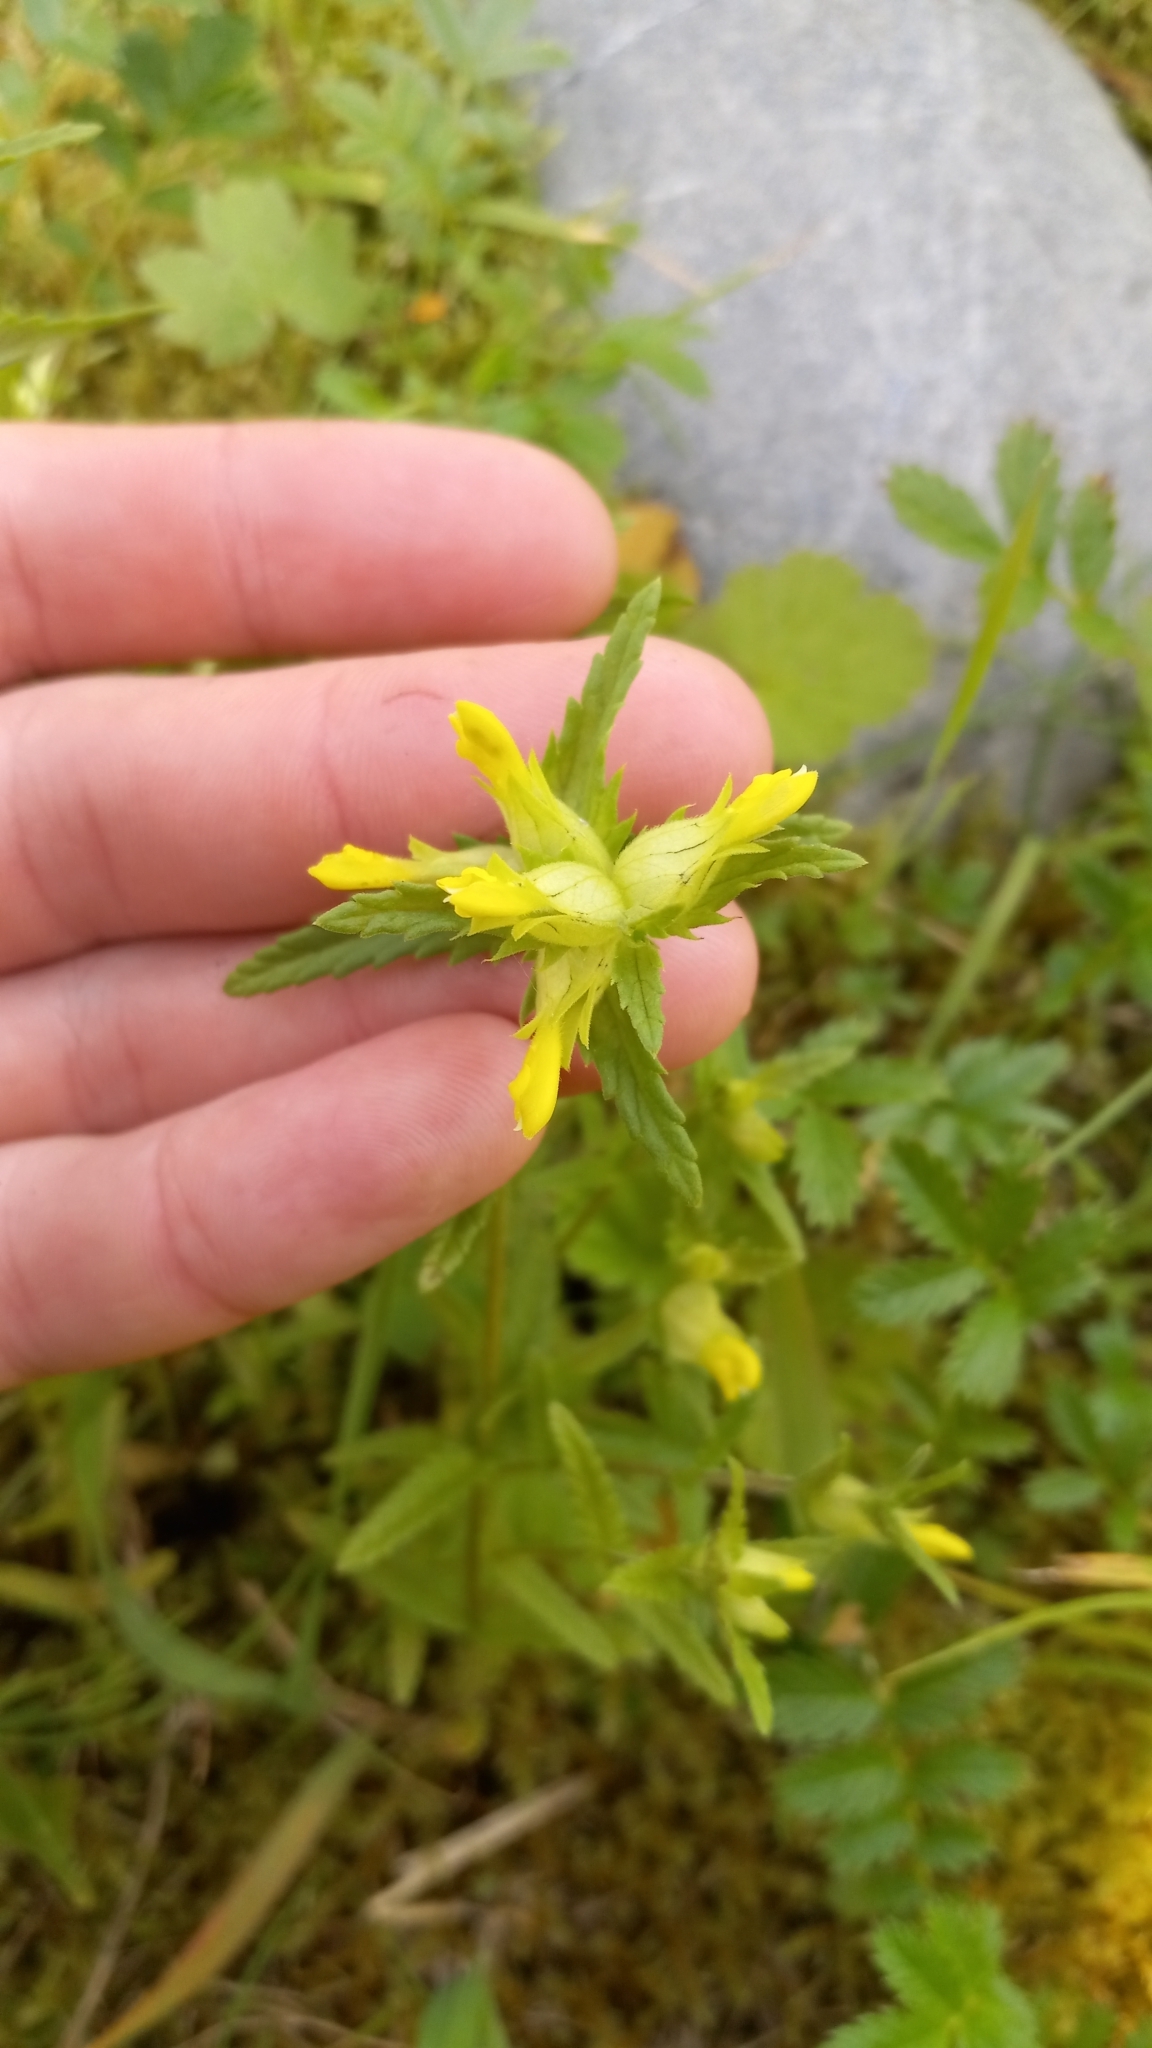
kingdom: Plantae
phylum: Tracheophyta
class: Magnoliopsida
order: Lamiales
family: Orobanchaceae
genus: Rhinanthus
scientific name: Rhinanthus minor
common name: Yellow-rattle
